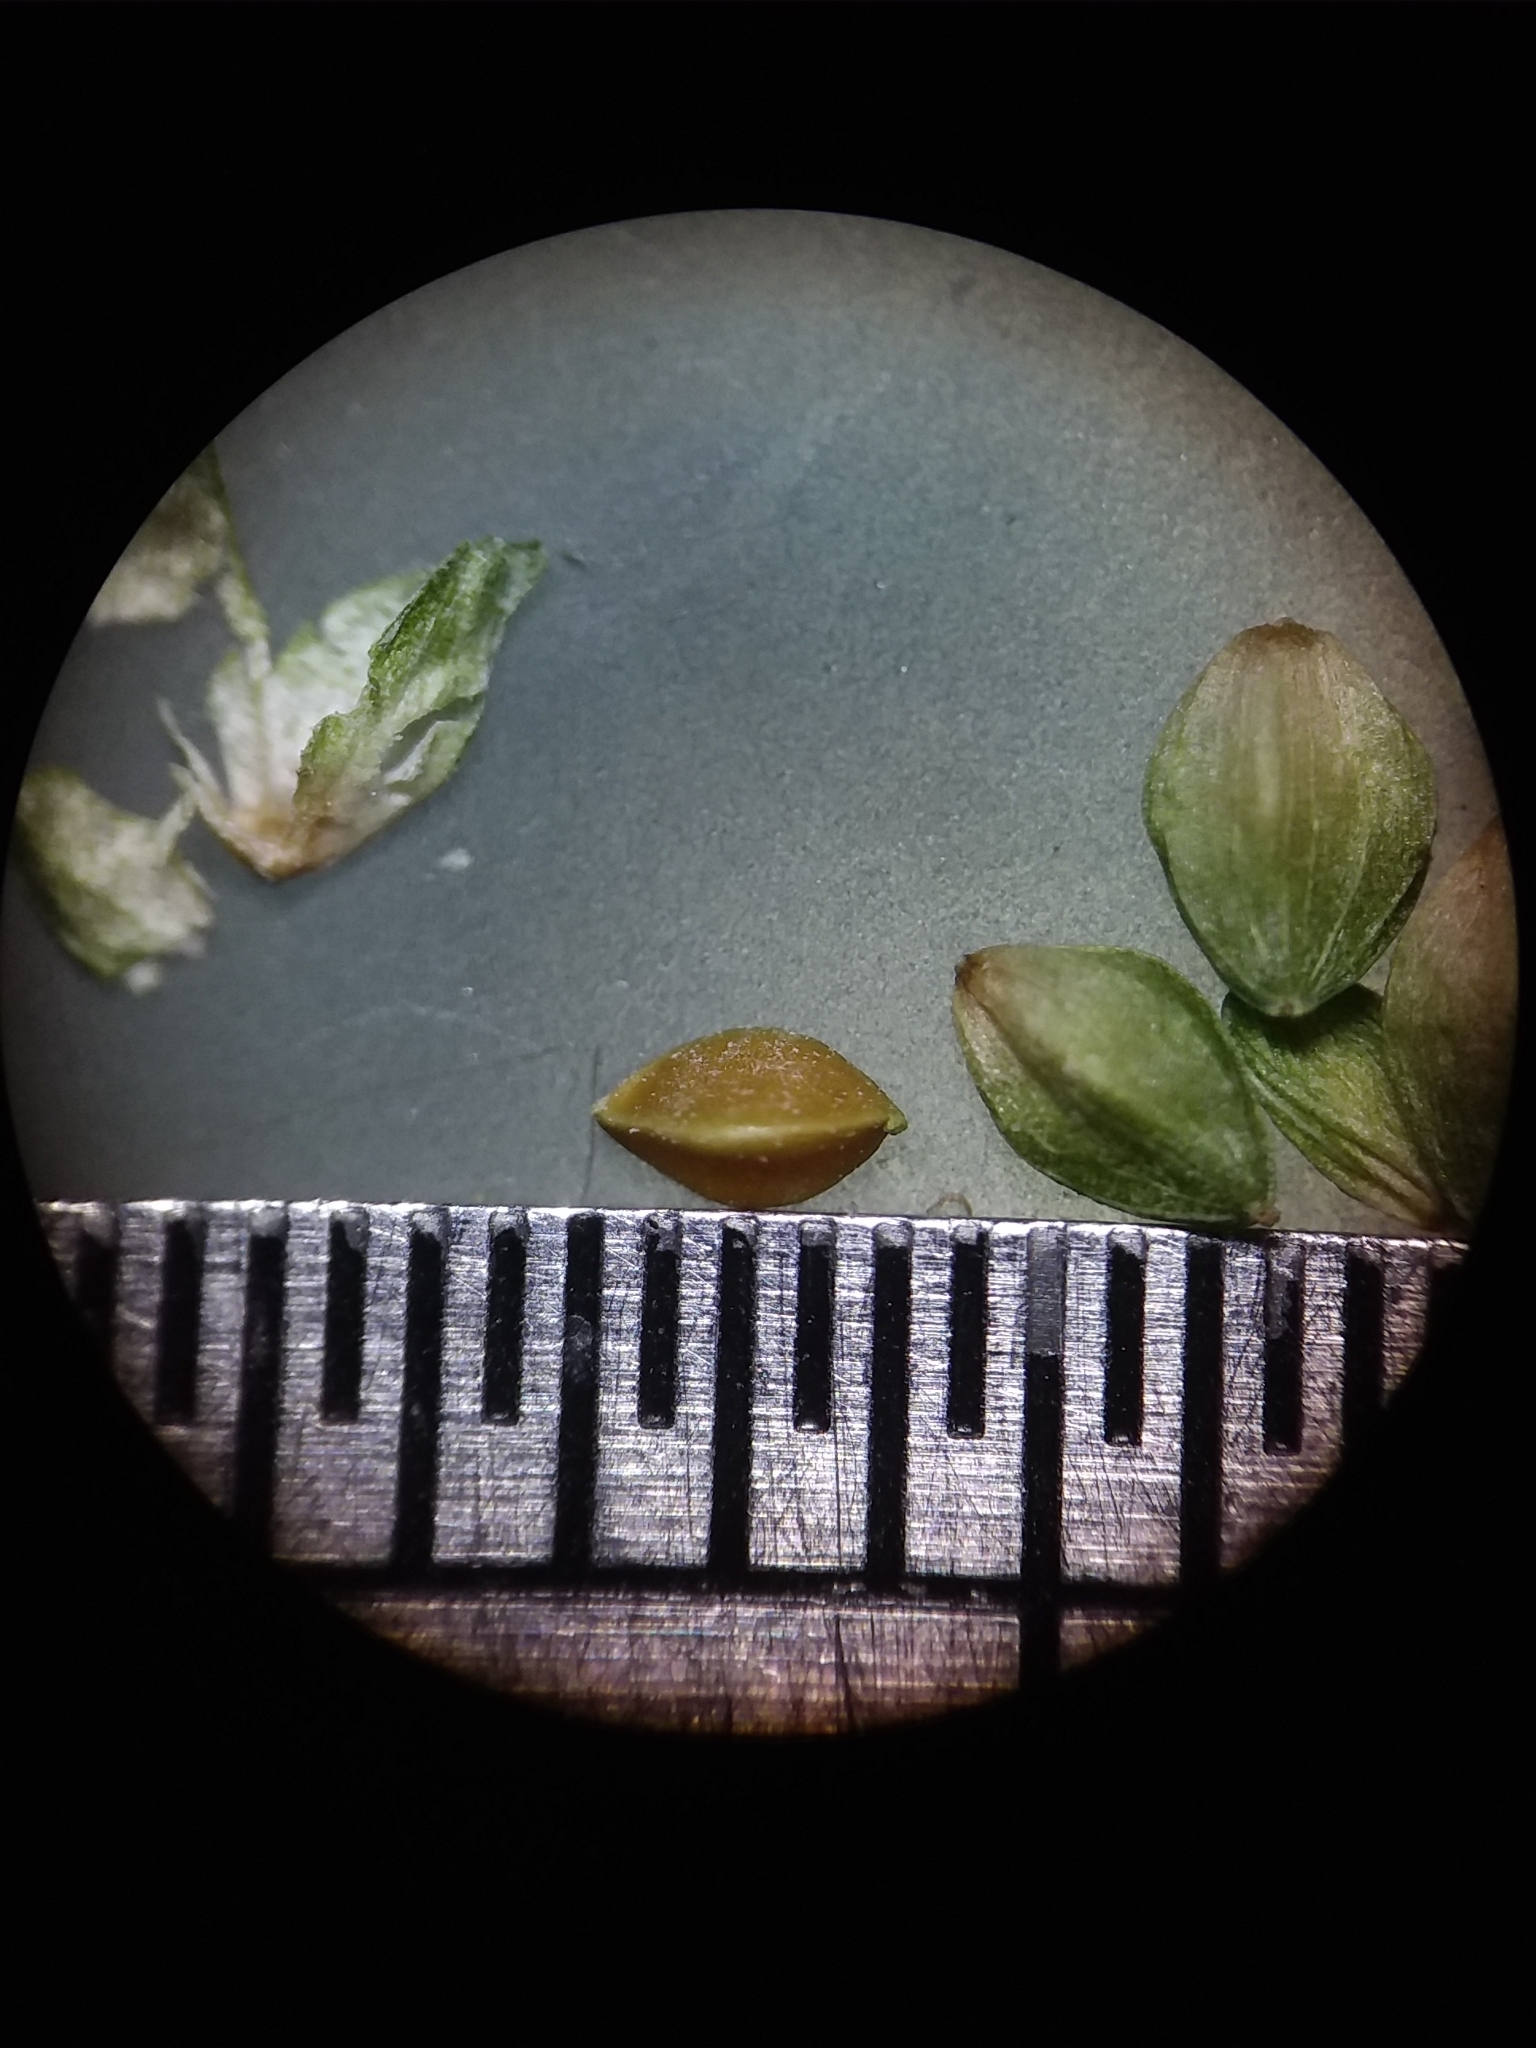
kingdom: Plantae
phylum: Tracheophyta
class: Liliopsida
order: Poales
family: Cyperaceae
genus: Carex
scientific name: Carex complanata
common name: Hirsute sedge
